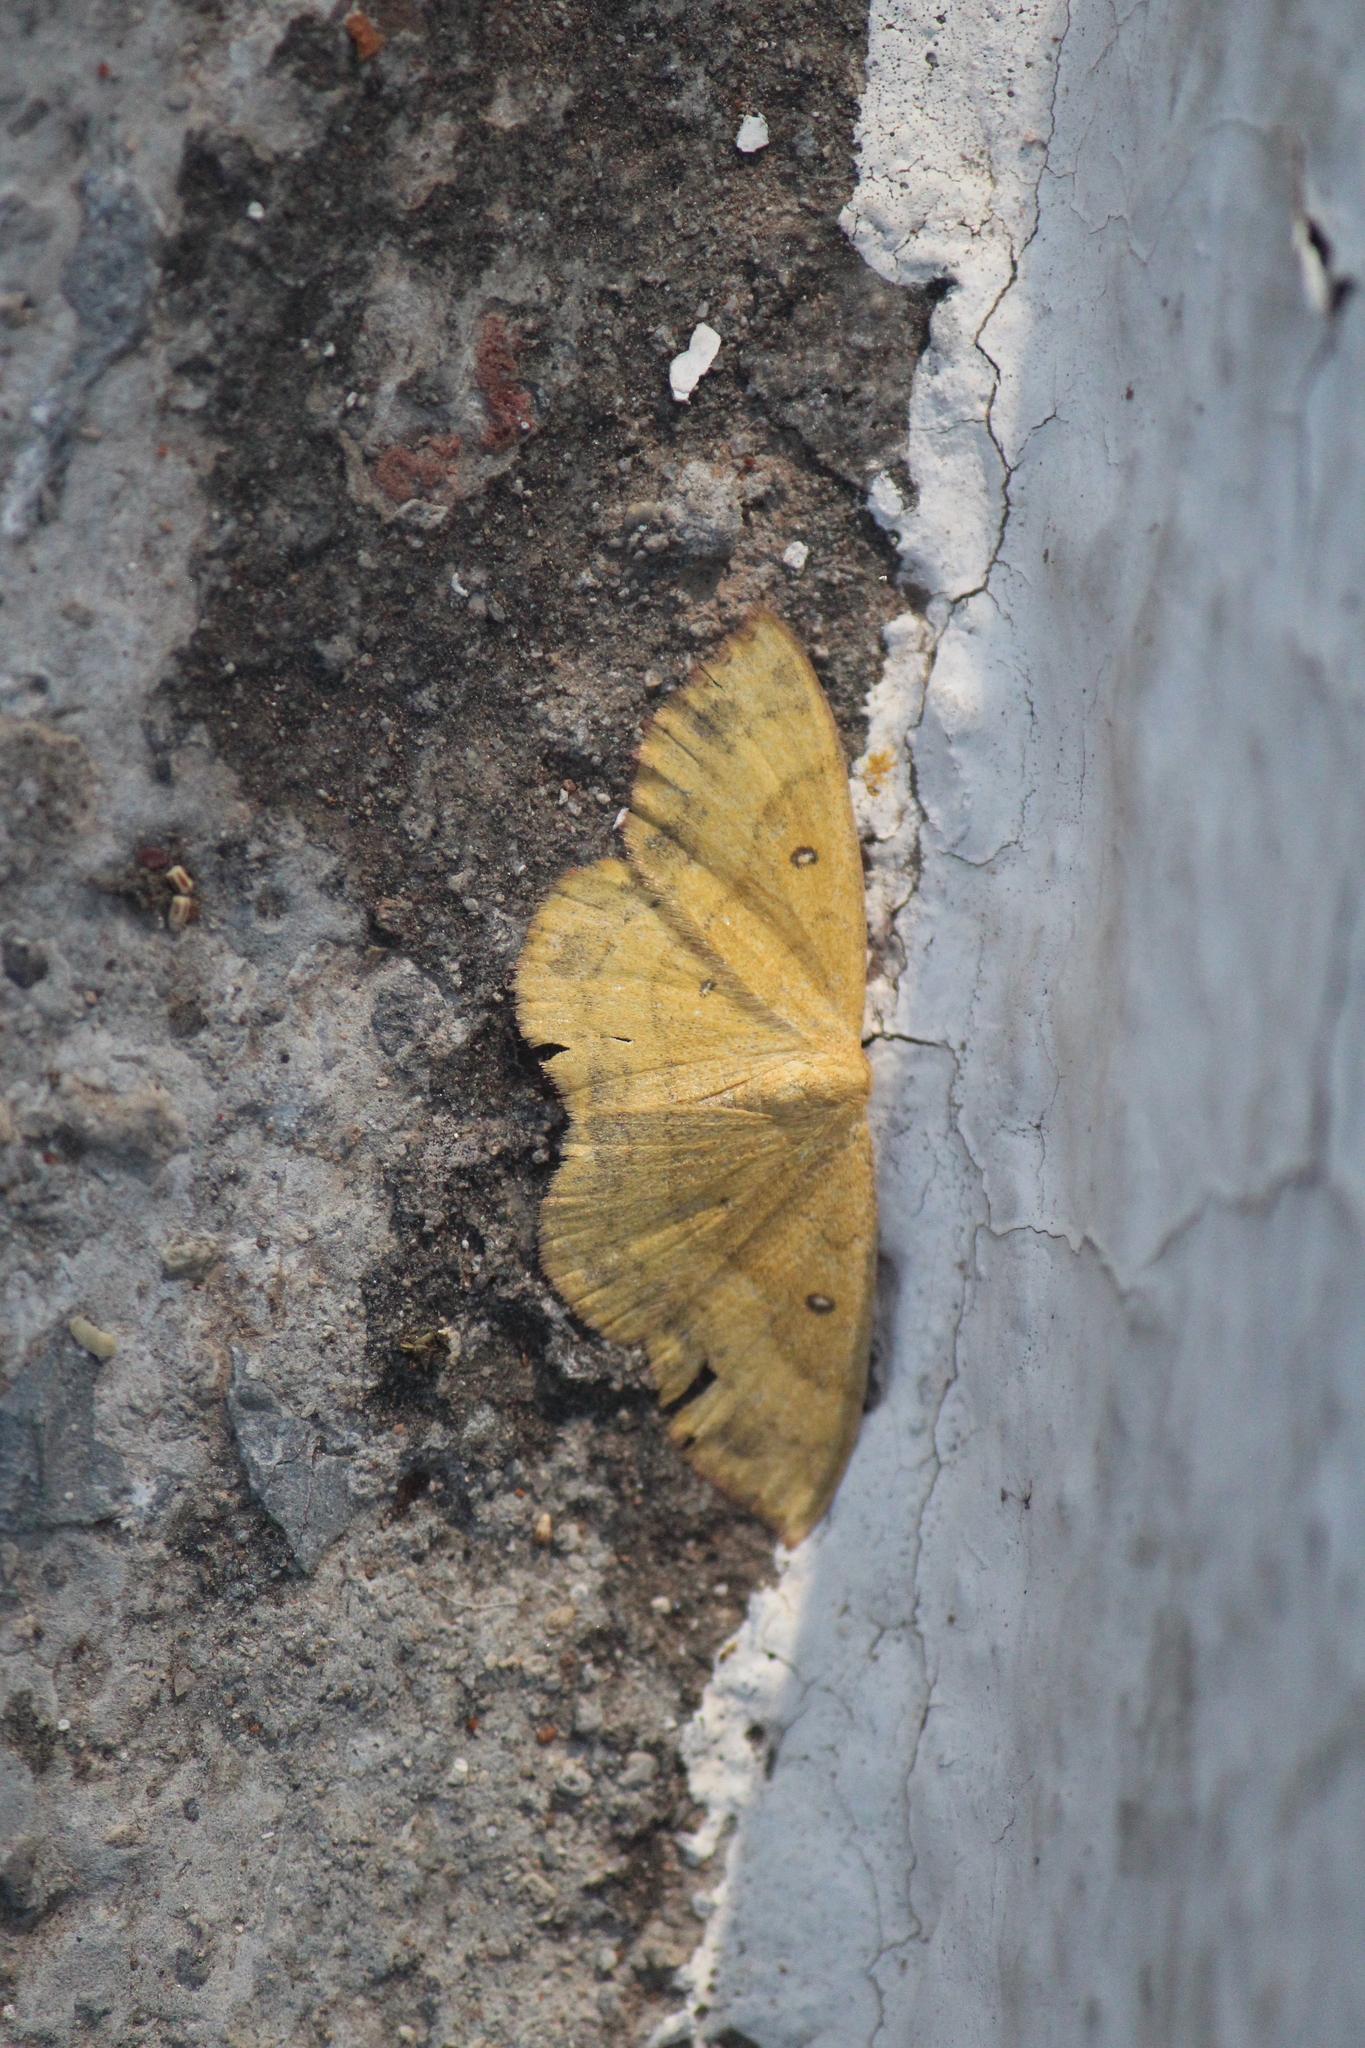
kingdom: Animalia
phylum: Arthropoda
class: Insecta
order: Lepidoptera
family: Geometridae
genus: Semaeopus
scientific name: Semaeopus ella
